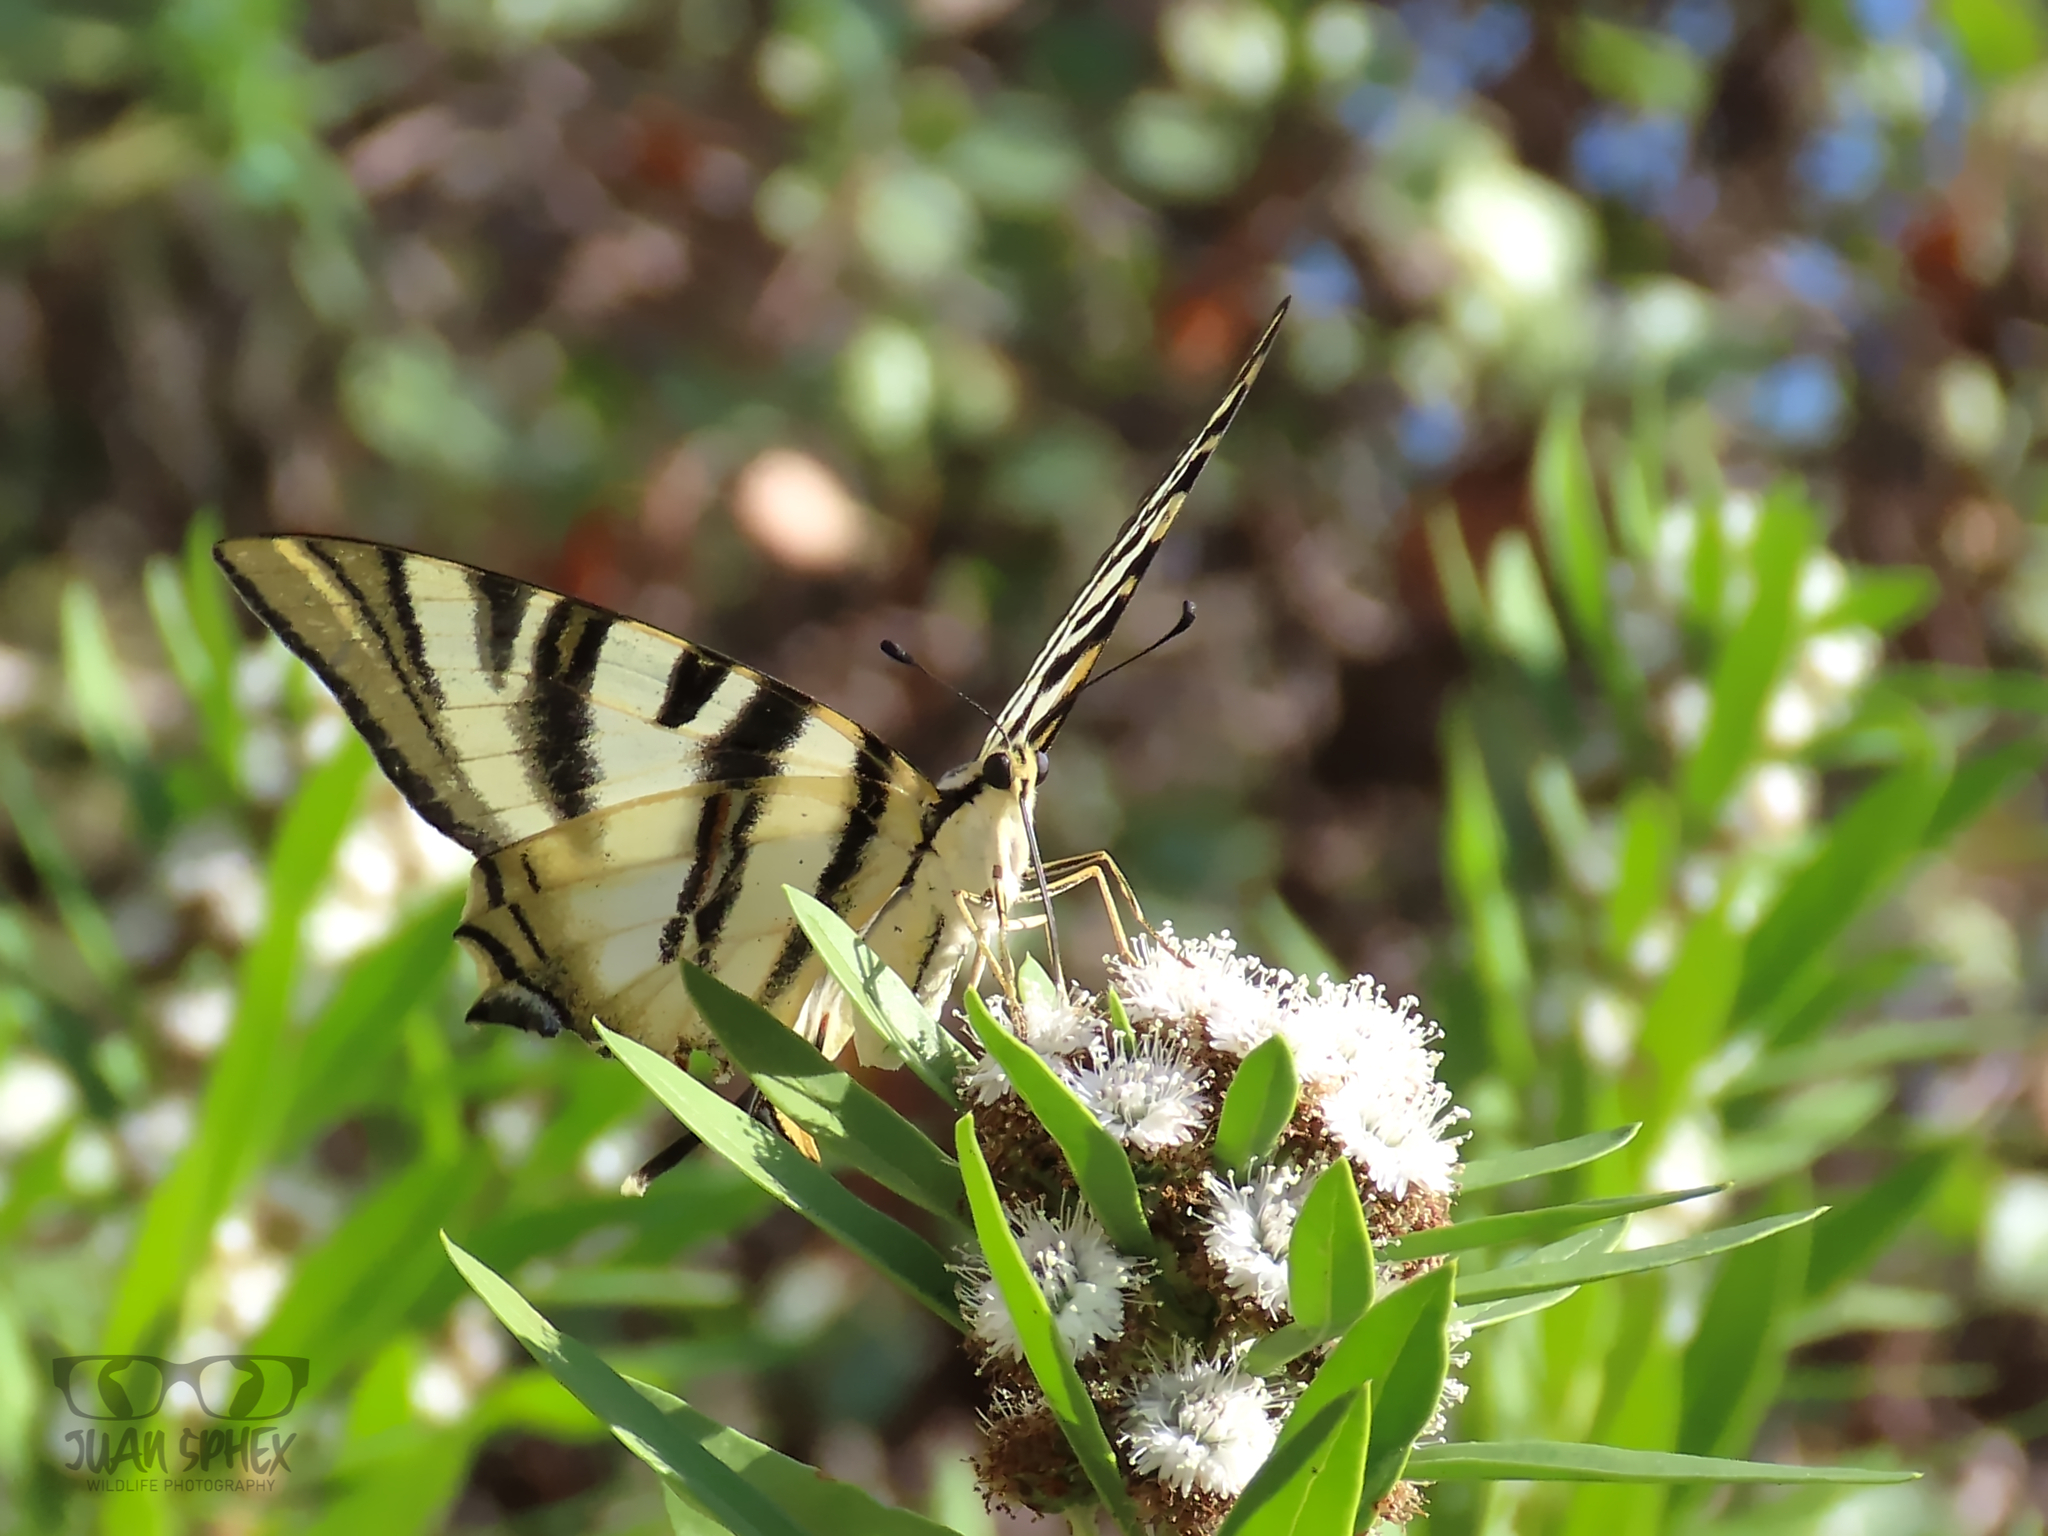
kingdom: Animalia
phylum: Arthropoda
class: Insecta
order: Lepidoptera
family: Papilionidae
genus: Iphiclides
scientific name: Iphiclides feisthamelii
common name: Iberian scarce swallowtail
